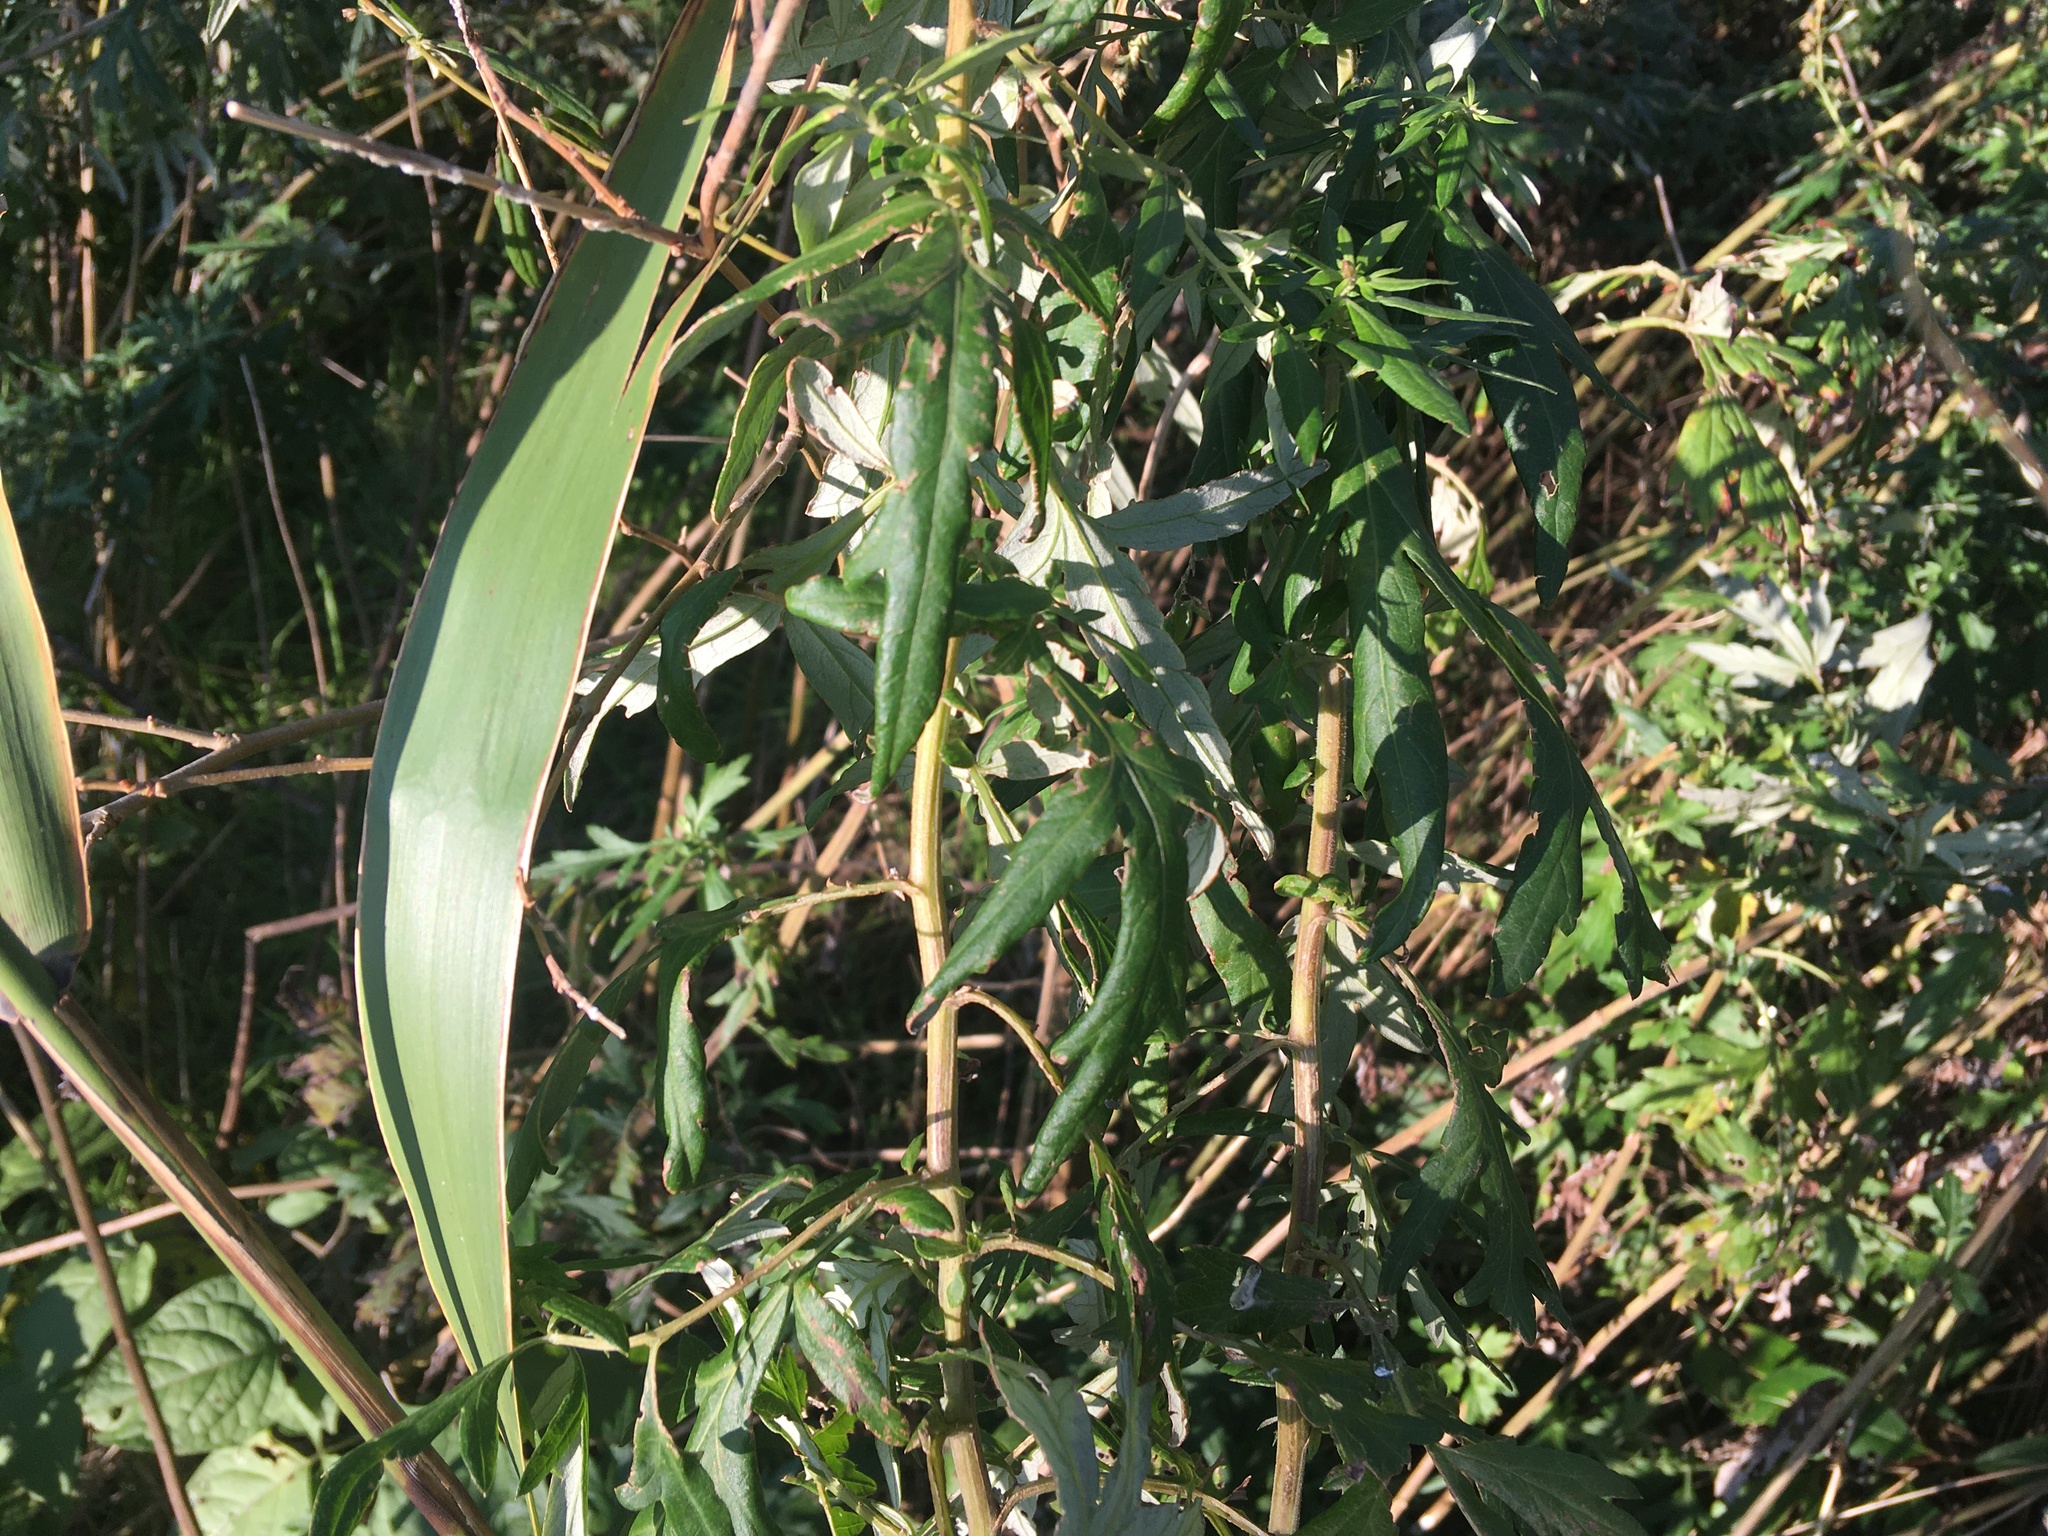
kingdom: Plantae
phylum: Tracheophyta
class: Magnoliopsida
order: Asterales
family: Asteraceae
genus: Artemisia
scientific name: Artemisia vulgaris
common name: Mugwort
